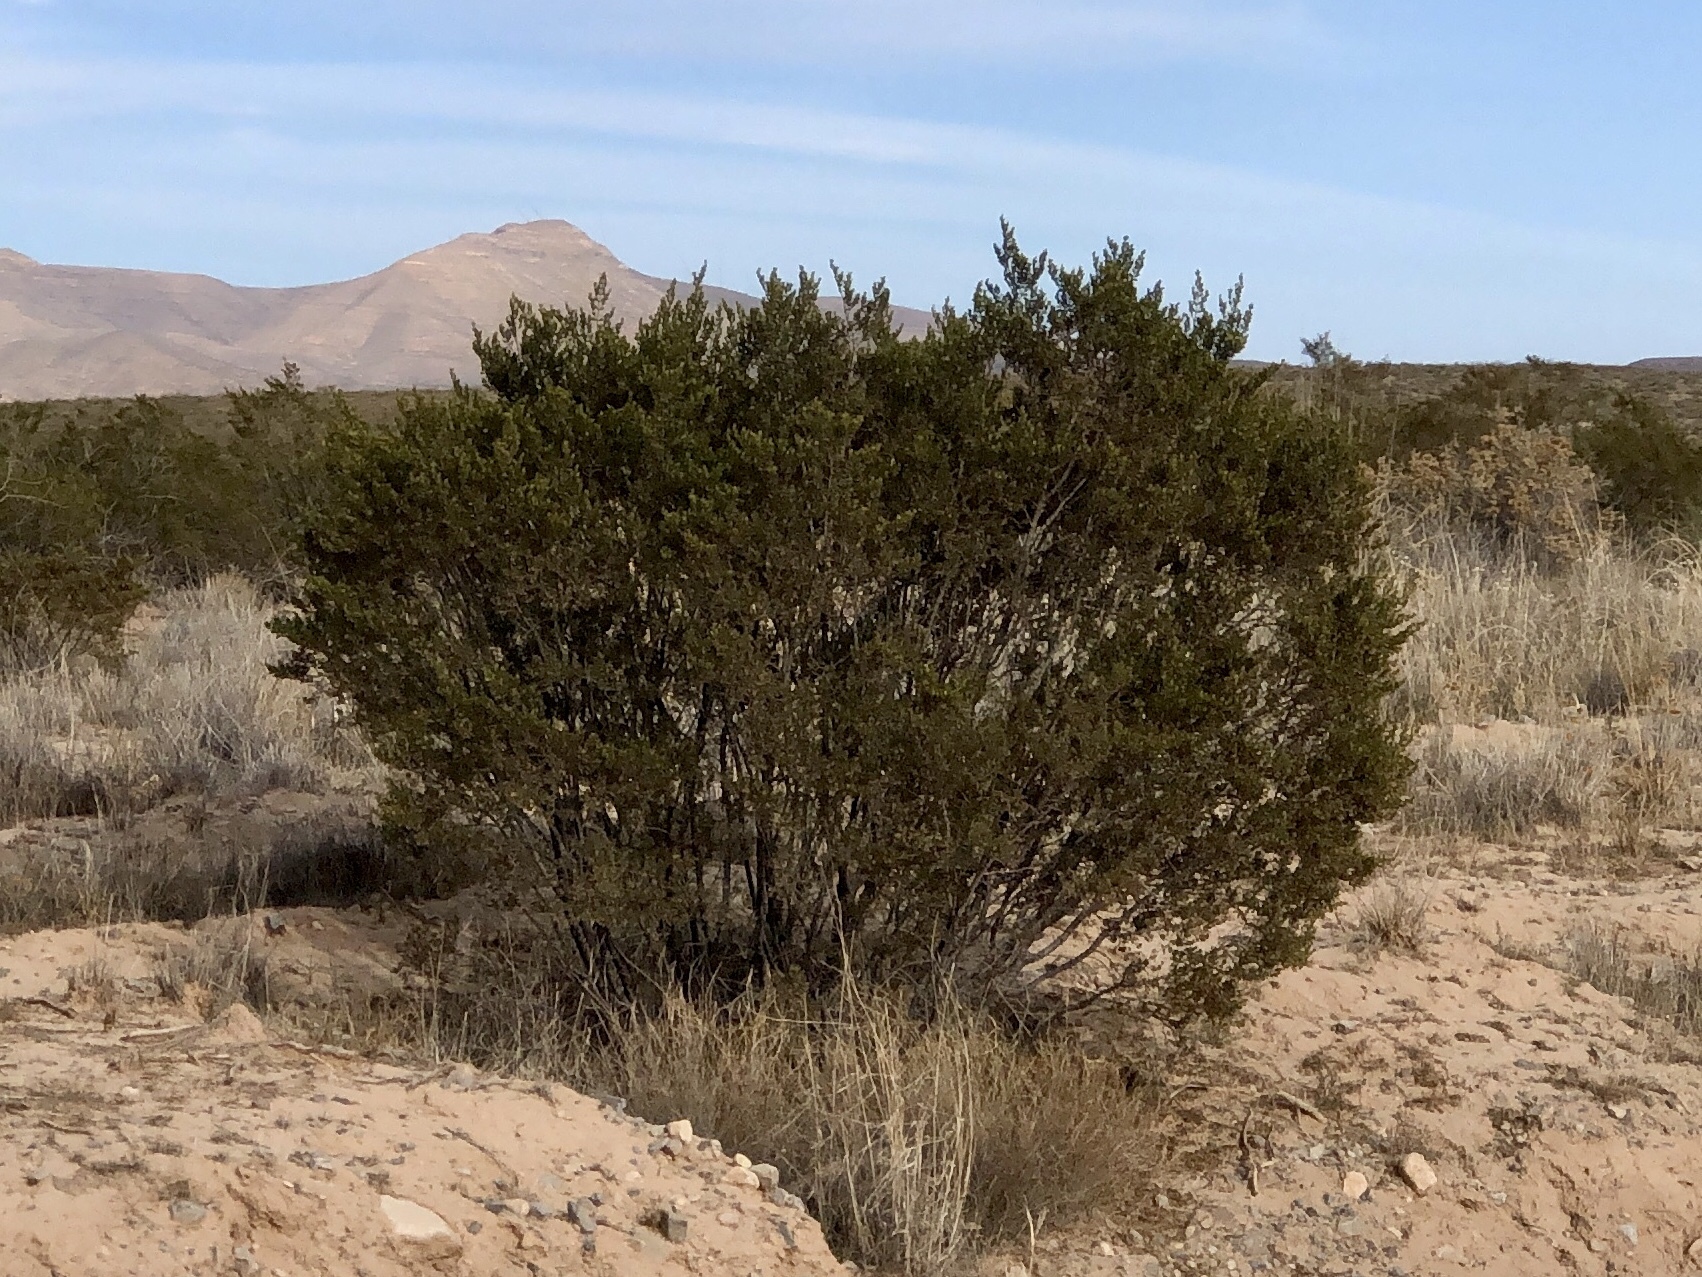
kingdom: Plantae
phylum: Tracheophyta
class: Magnoliopsida
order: Zygophyllales
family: Zygophyllaceae
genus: Larrea
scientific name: Larrea tridentata
